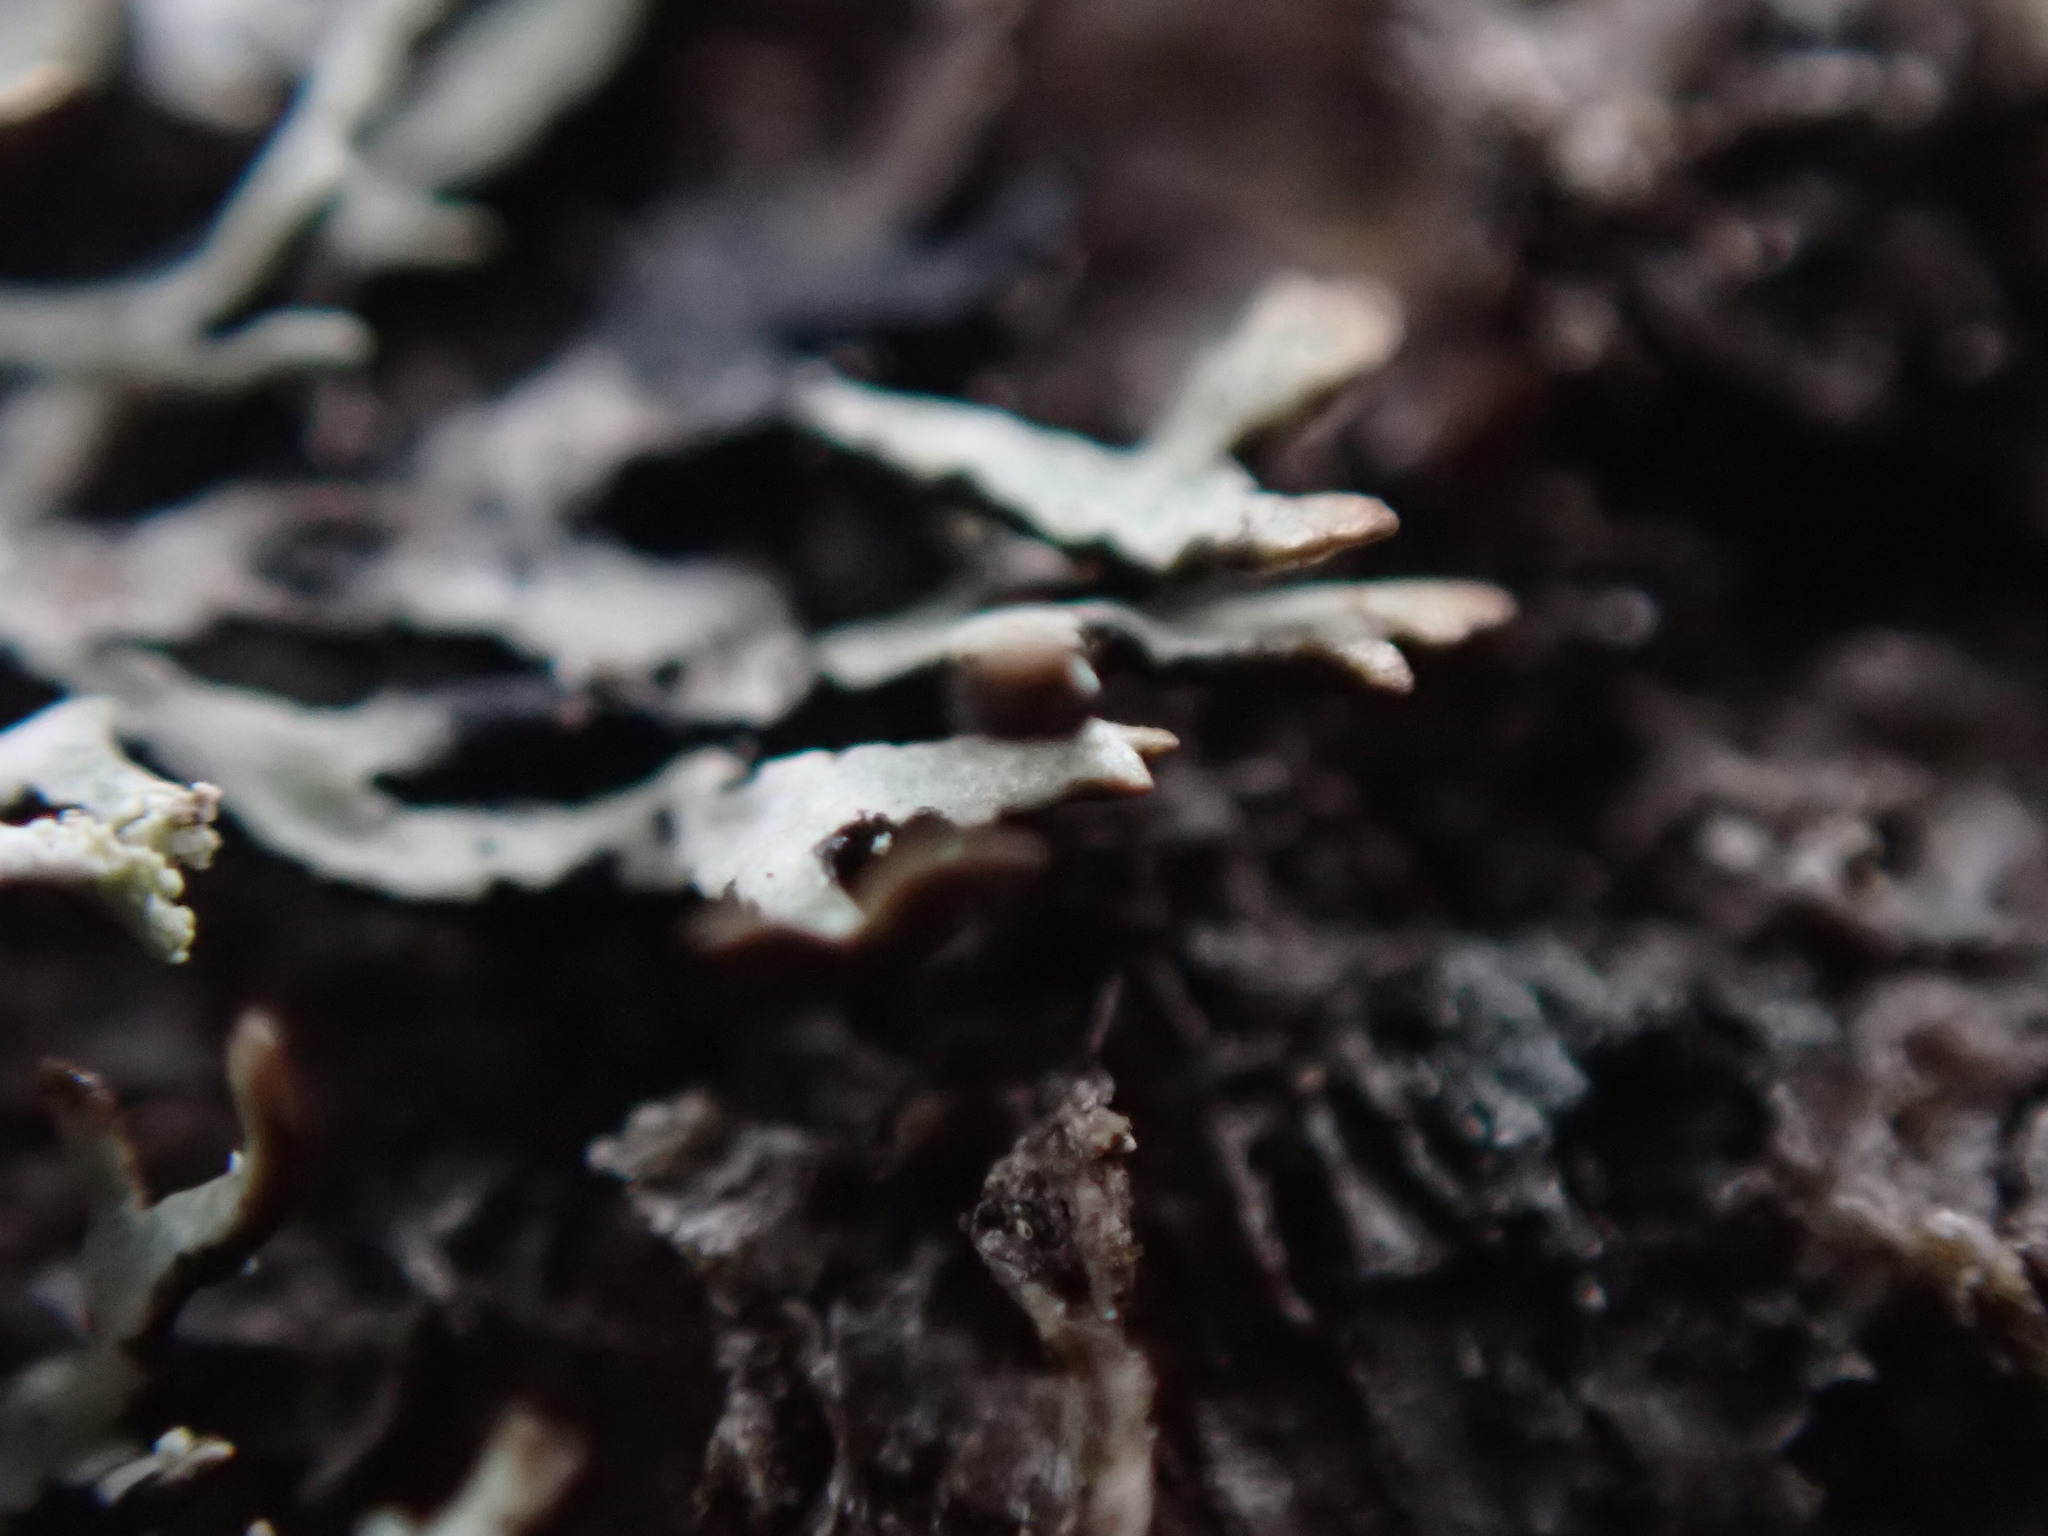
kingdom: Fungi
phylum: Ascomycota
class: Lecanoromycetes
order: Lecanorales
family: Parmeliaceae
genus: Hypogymnia
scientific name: Hypogymnia hultenii
